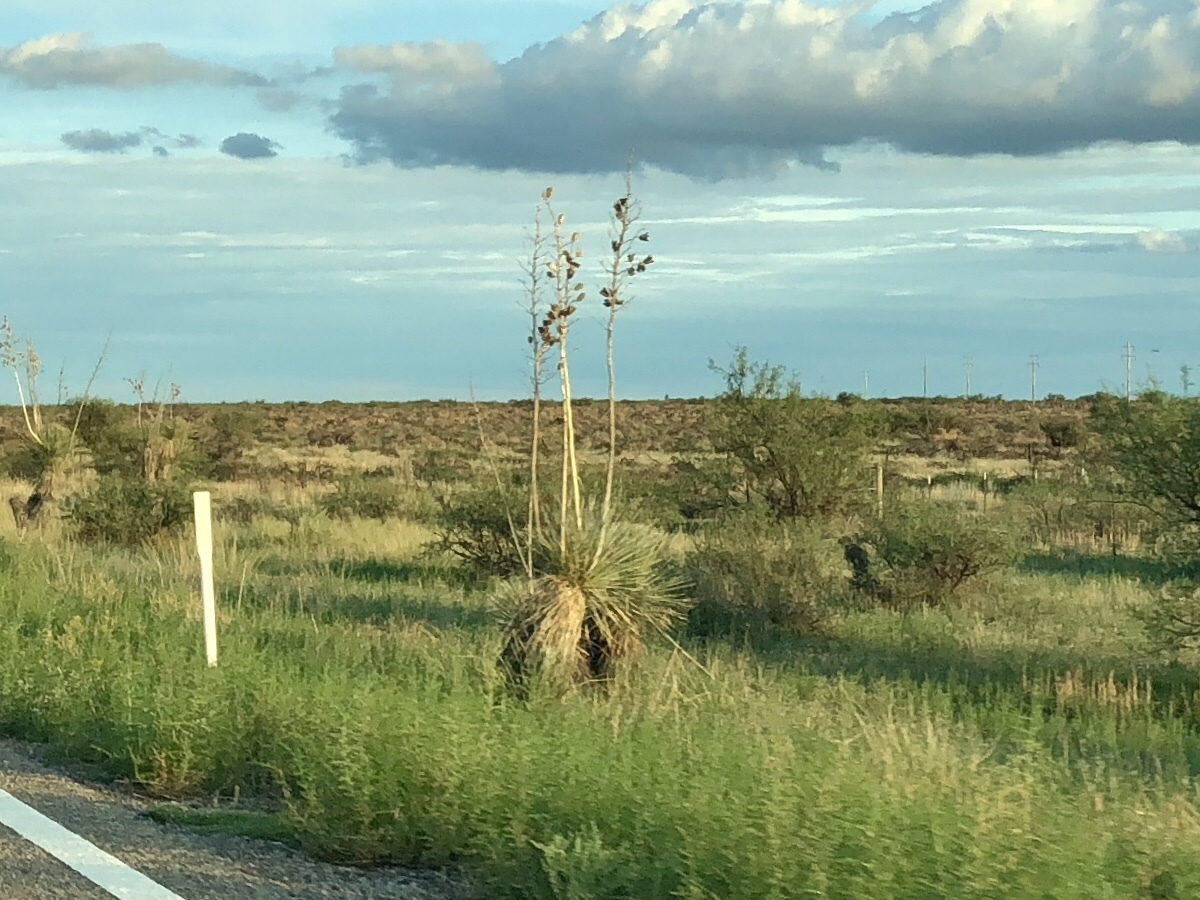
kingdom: Plantae
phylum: Tracheophyta
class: Liliopsida
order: Asparagales
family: Asparagaceae
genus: Yucca
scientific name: Yucca elata
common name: Palmella
